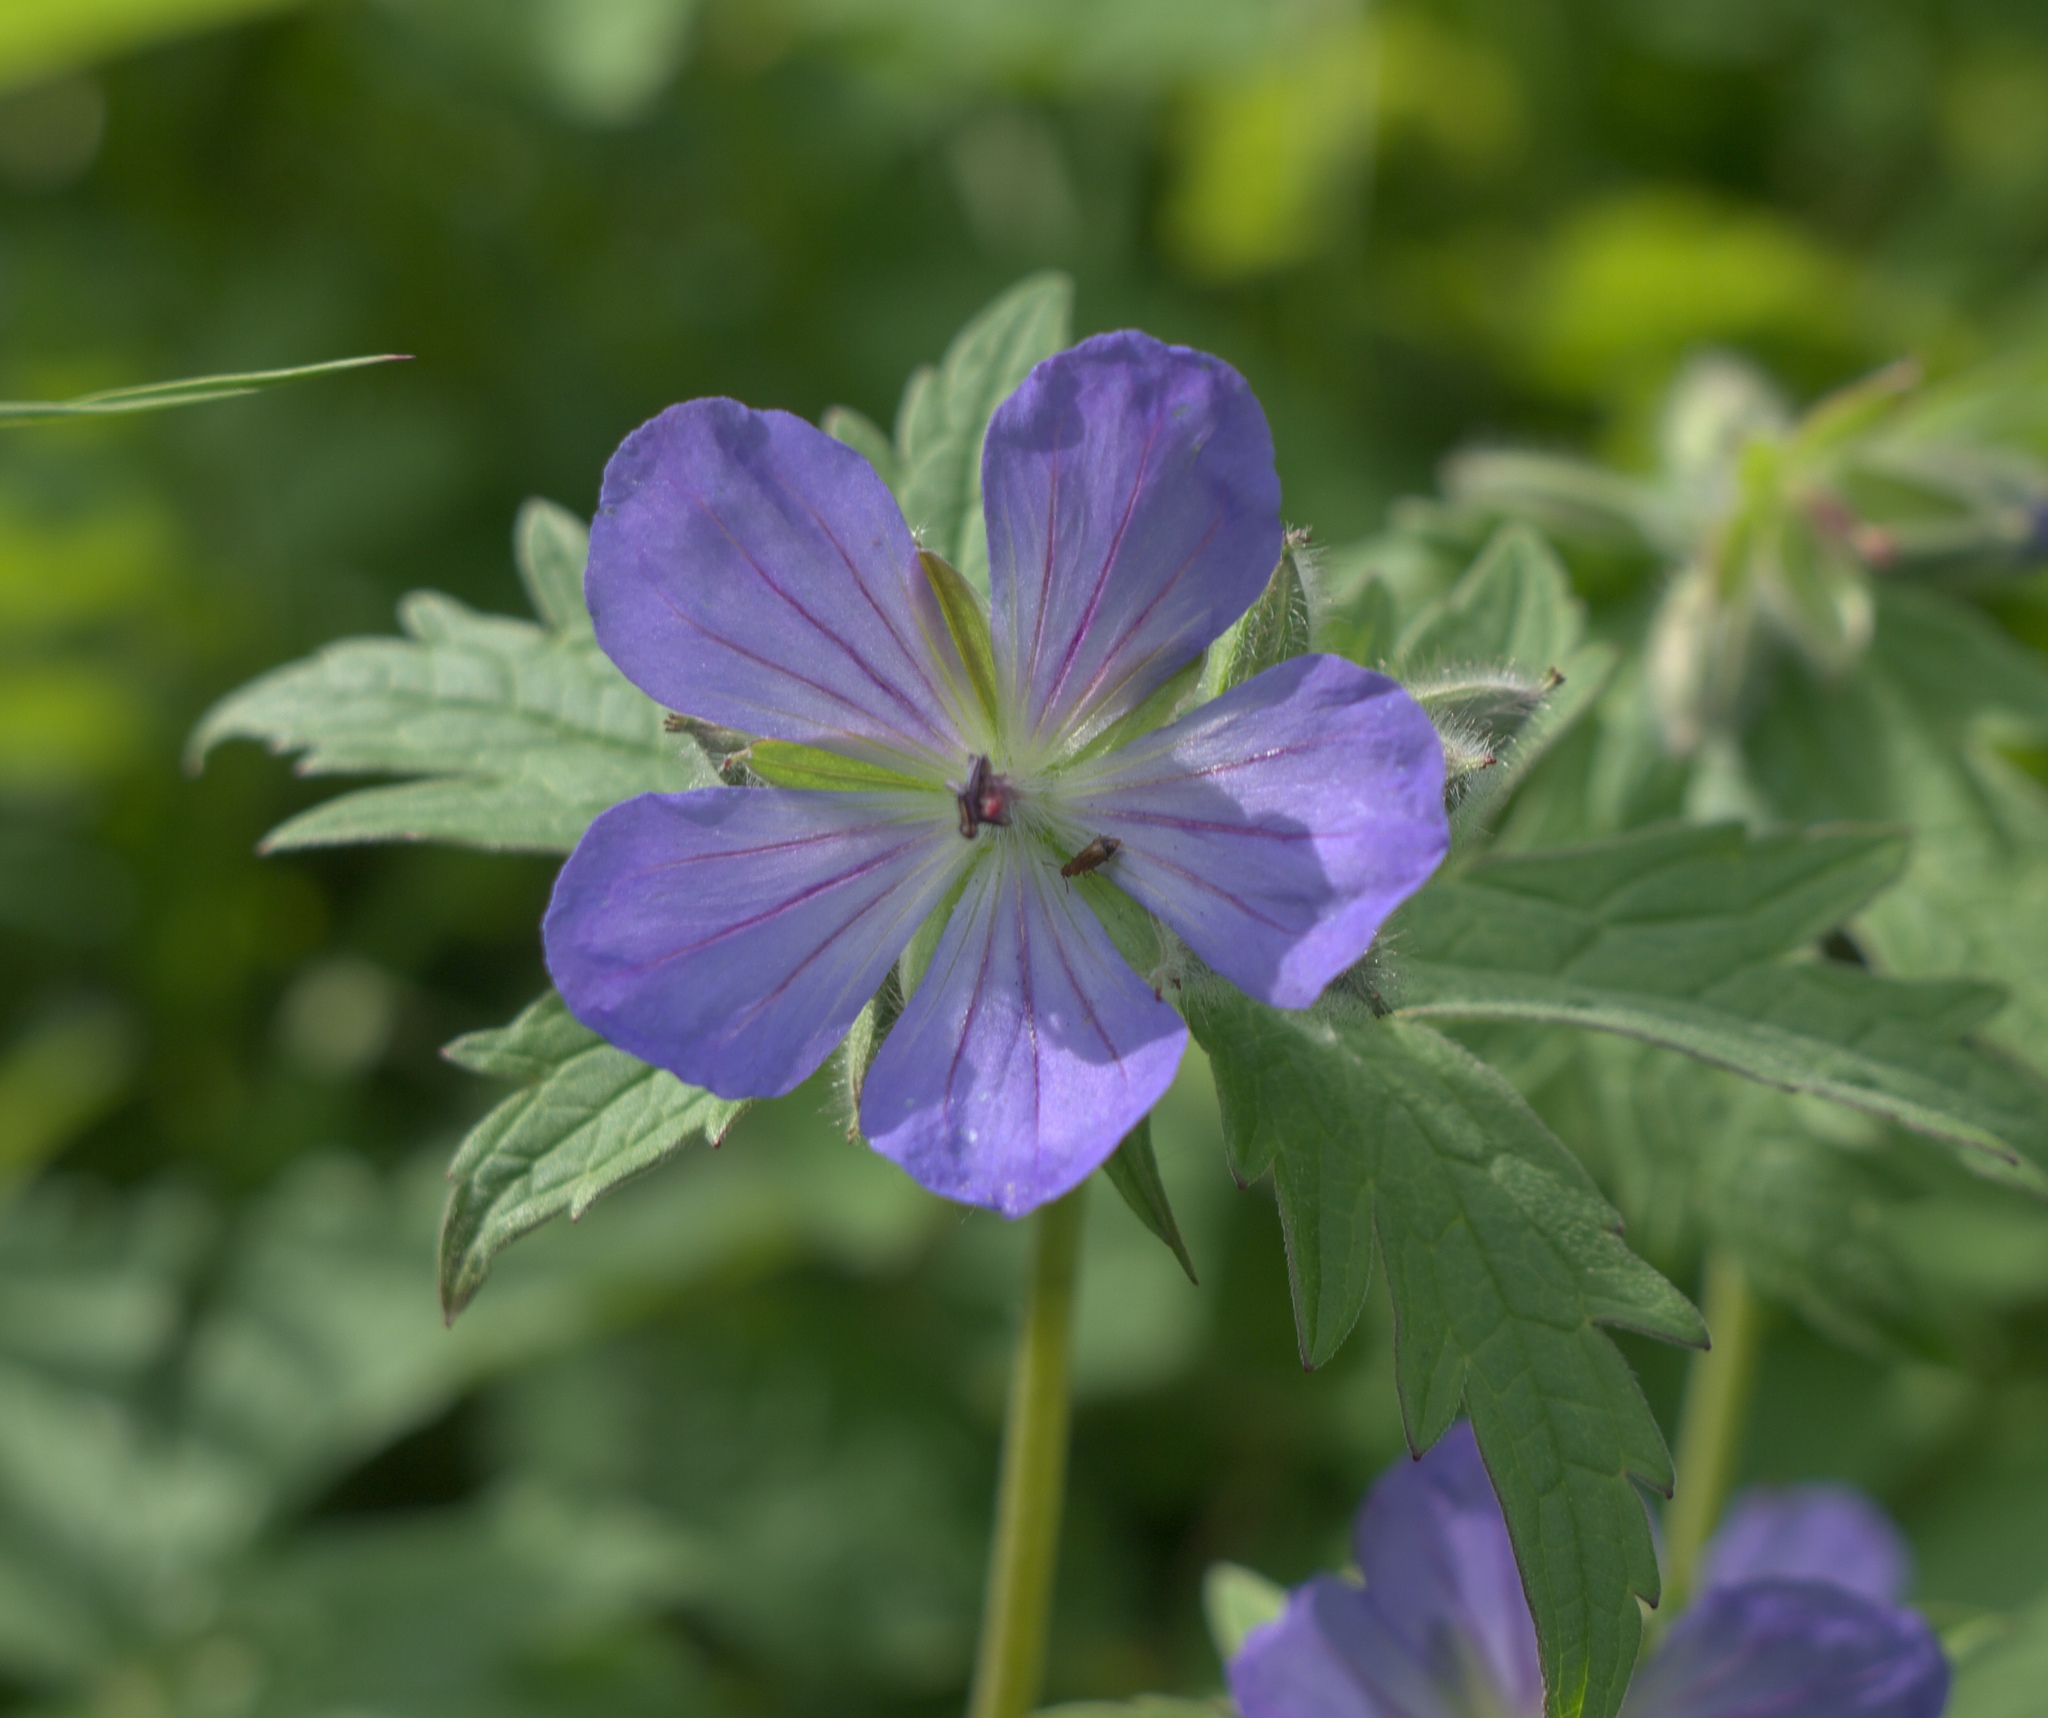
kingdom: Plantae
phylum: Tracheophyta
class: Magnoliopsida
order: Geraniales
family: Geraniaceae
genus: Geranium
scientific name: Geranium erianthum
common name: Northern crane's-bill
